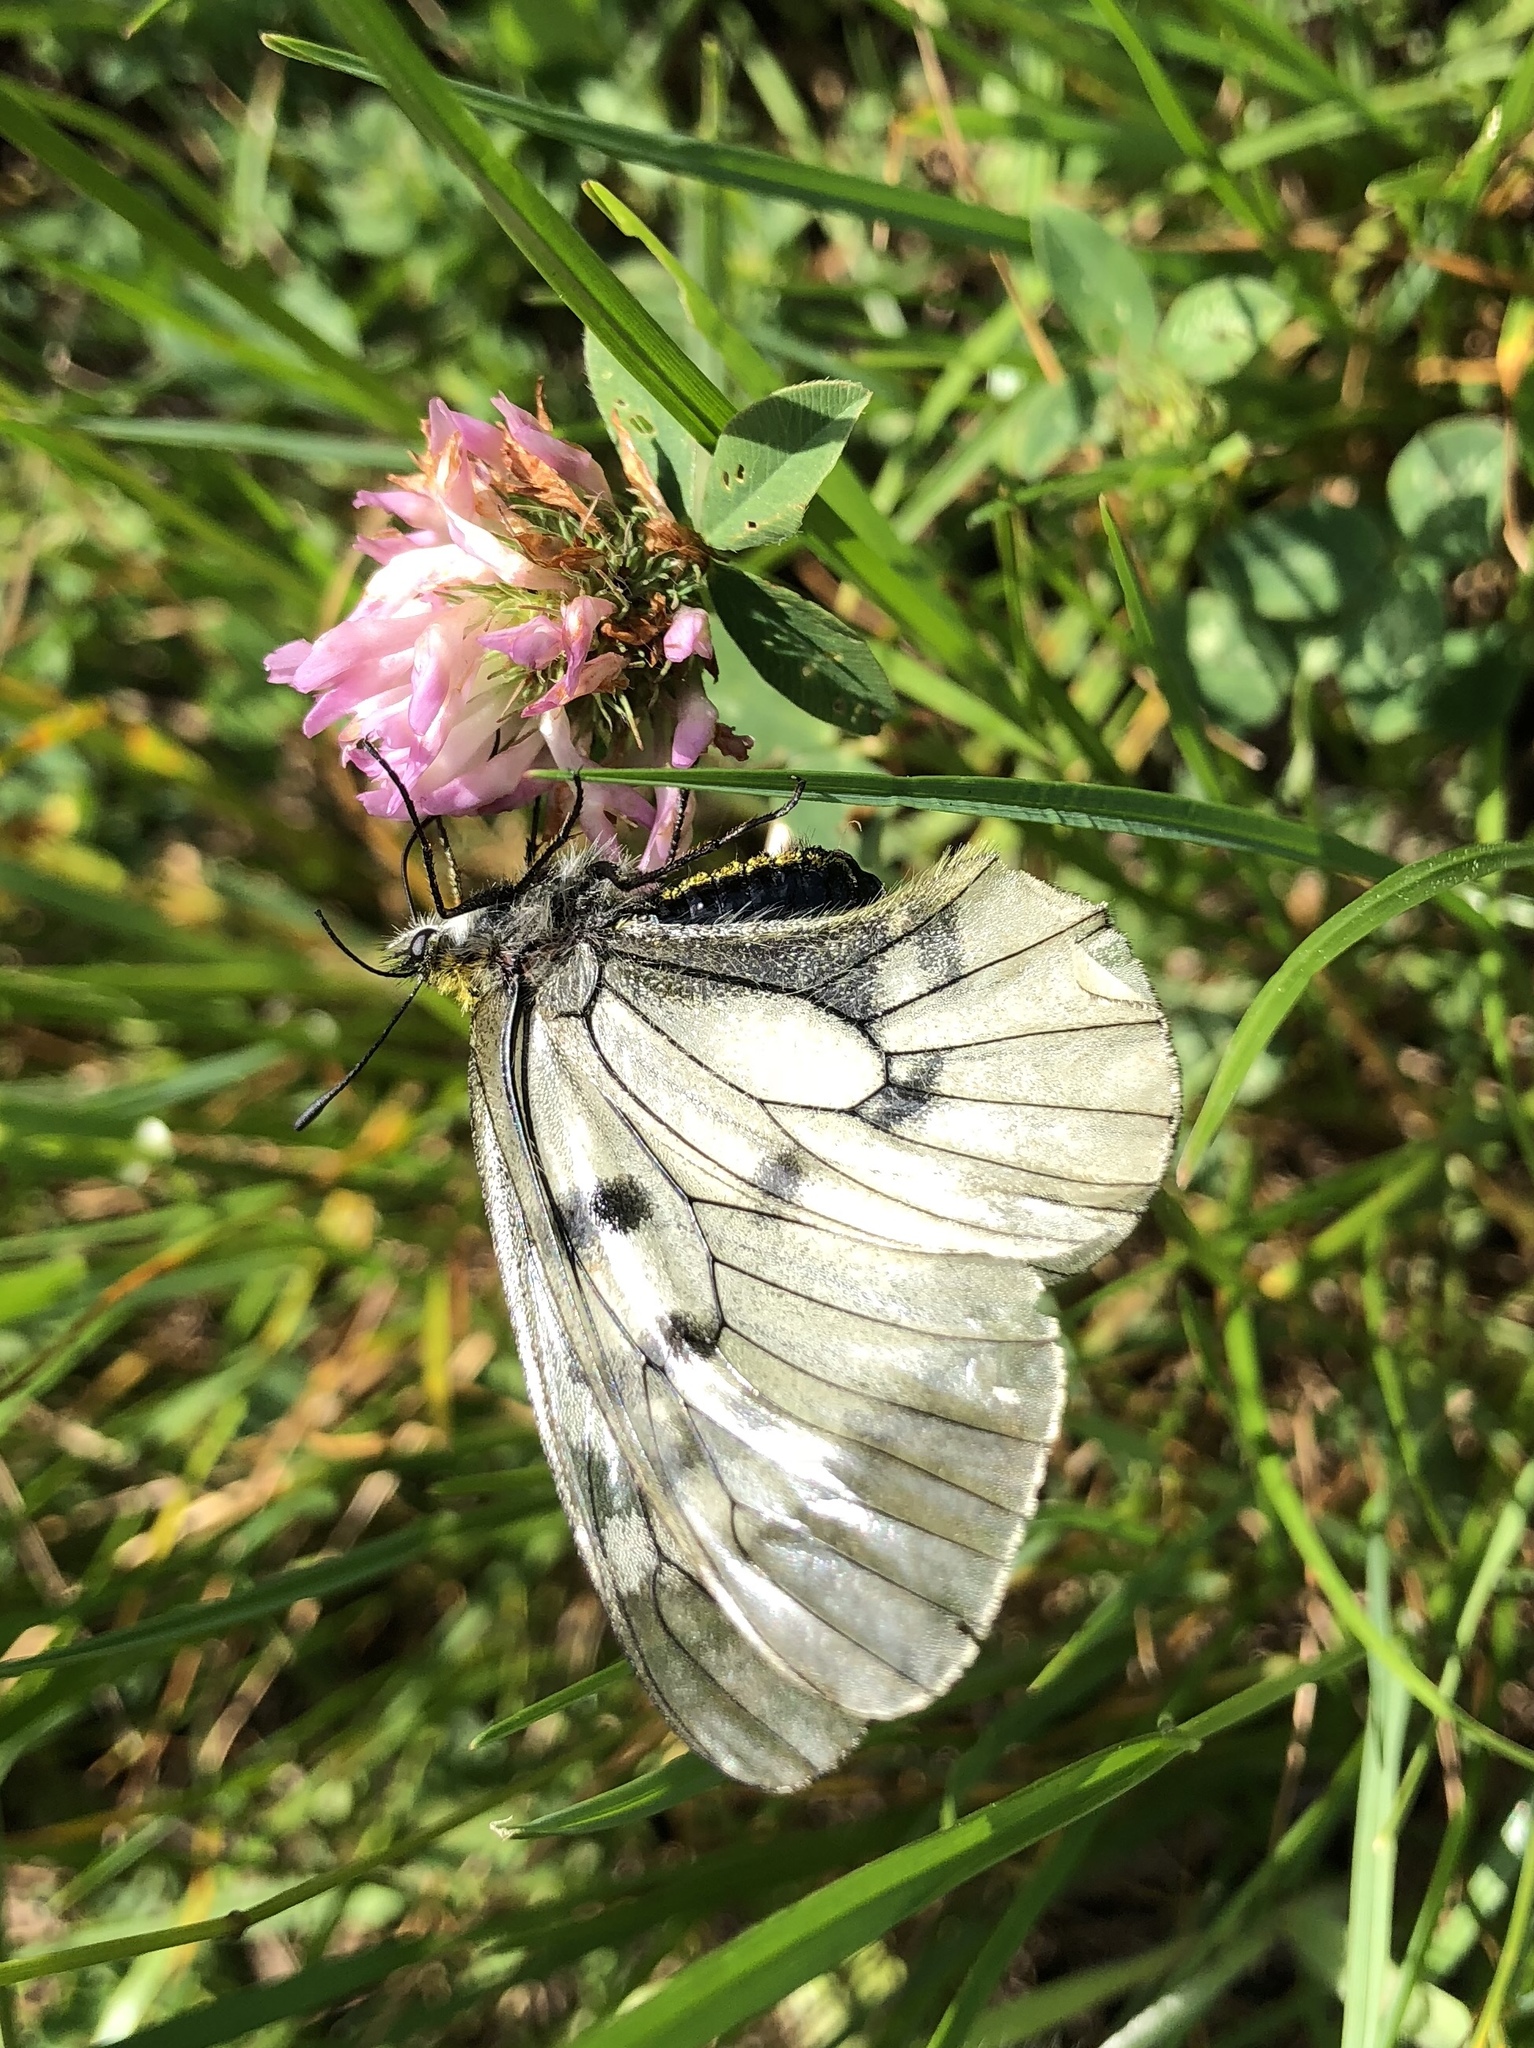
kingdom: Animalia
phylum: Arthropoda
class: Insecta
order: Lepidoptera
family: Papilionidae
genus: Parnassius
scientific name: Parnassius mnemosyne
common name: Clouded apollo
